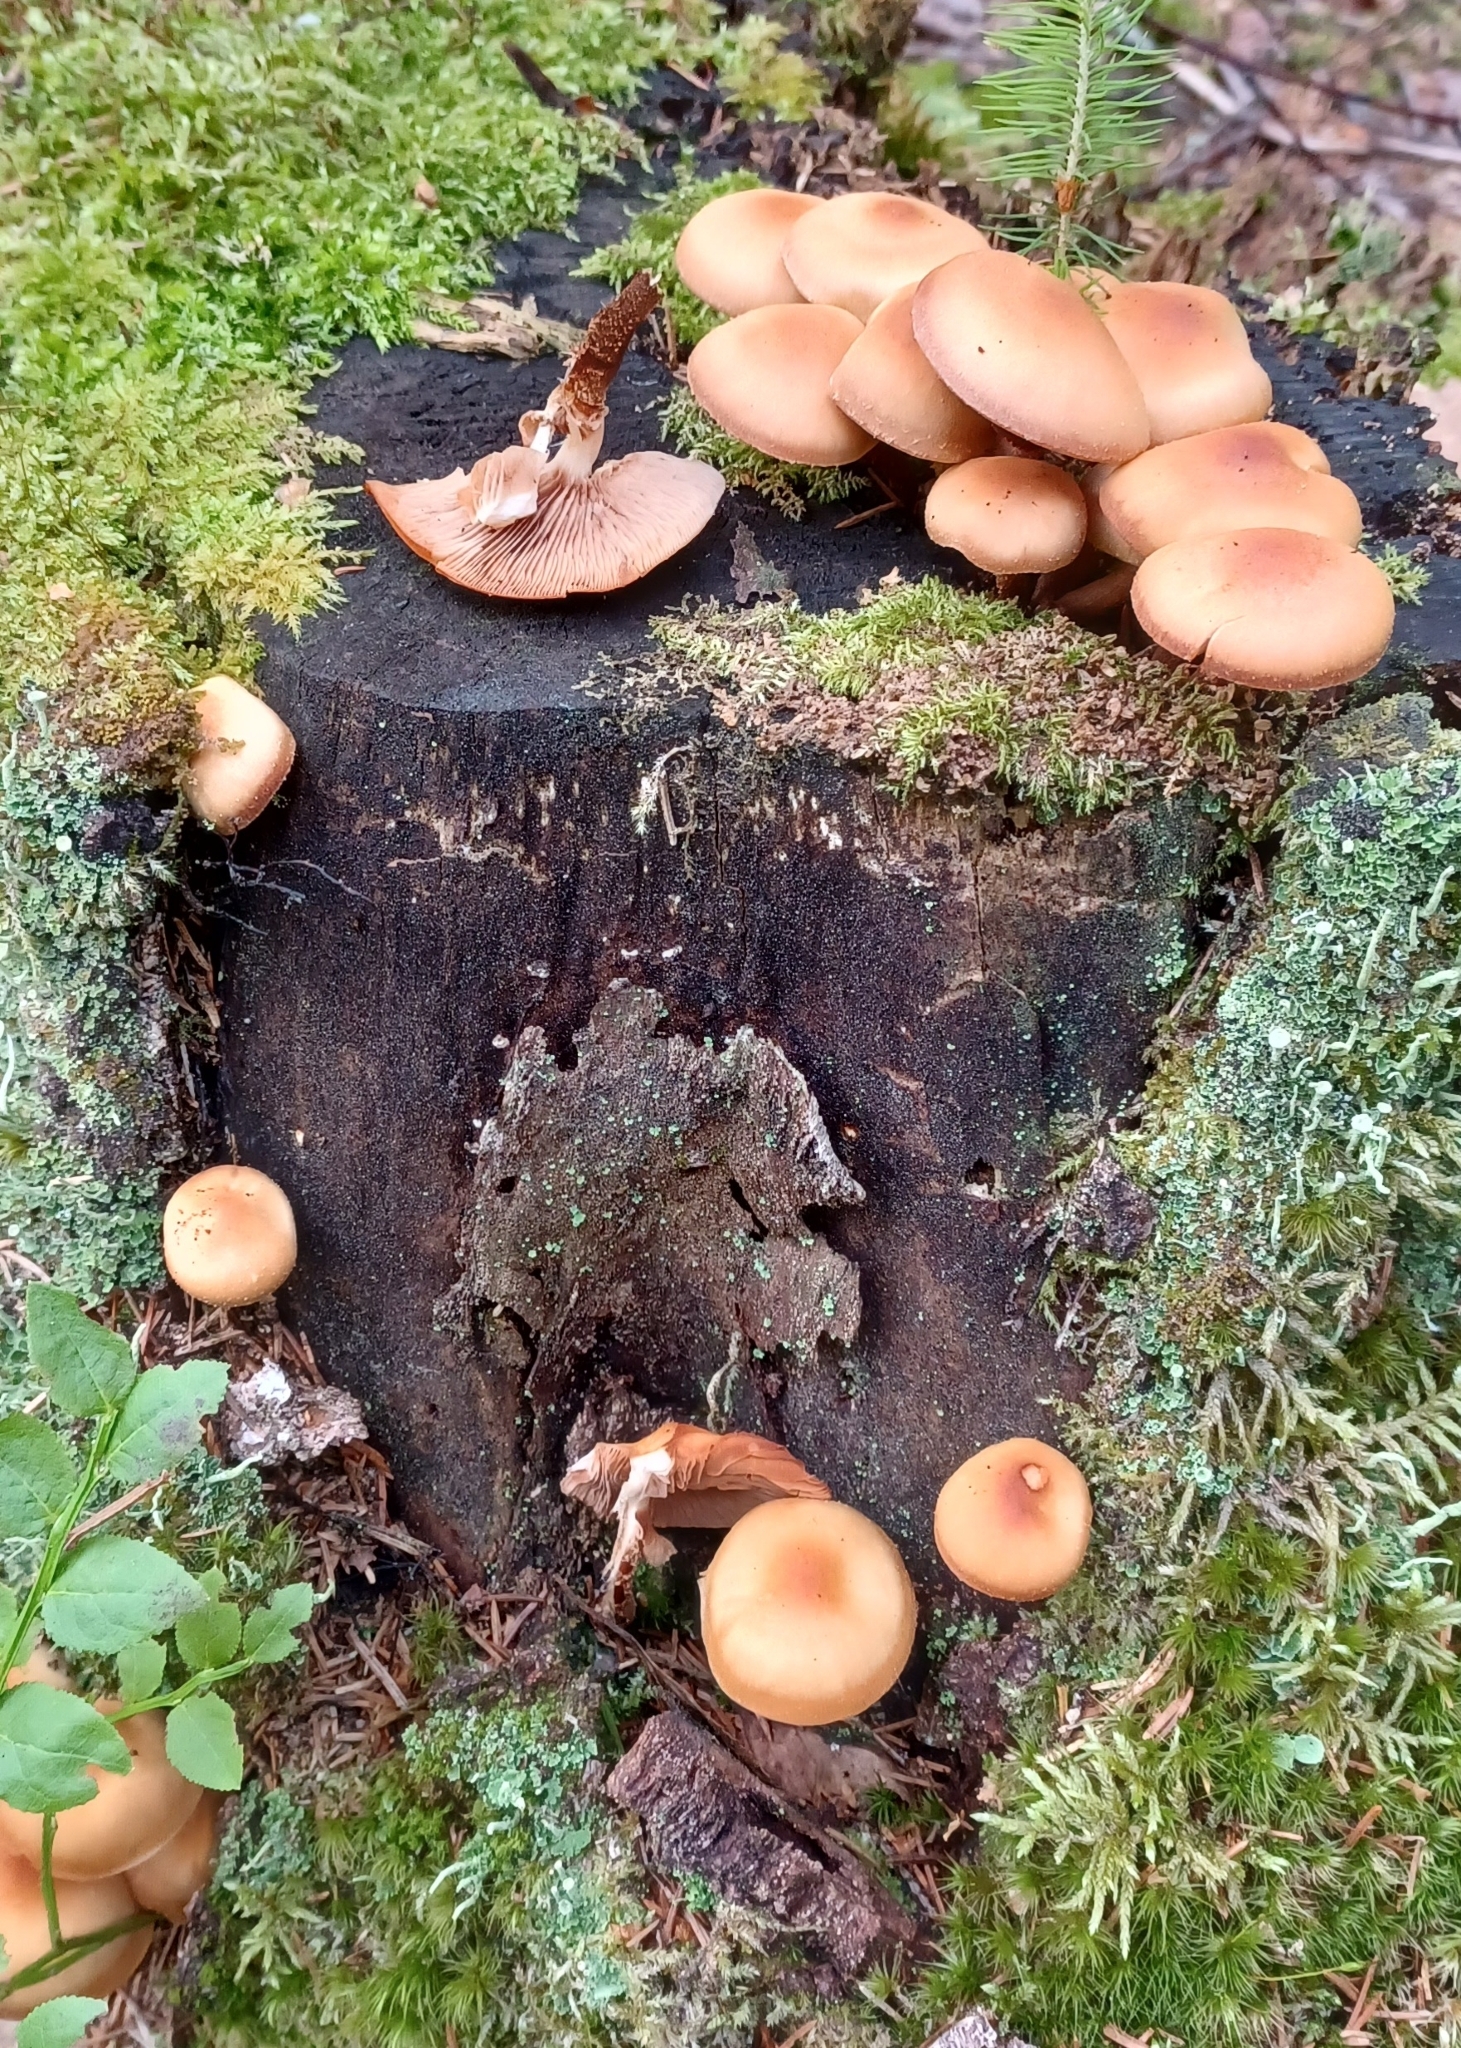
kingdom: Fungi
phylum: Basidiomycota
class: Agaricomycetes
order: Agaricales
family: Strophariaceae
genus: Kuehneromyces
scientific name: Kuehneromyces mutabilis
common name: Sheathed woodtuft
